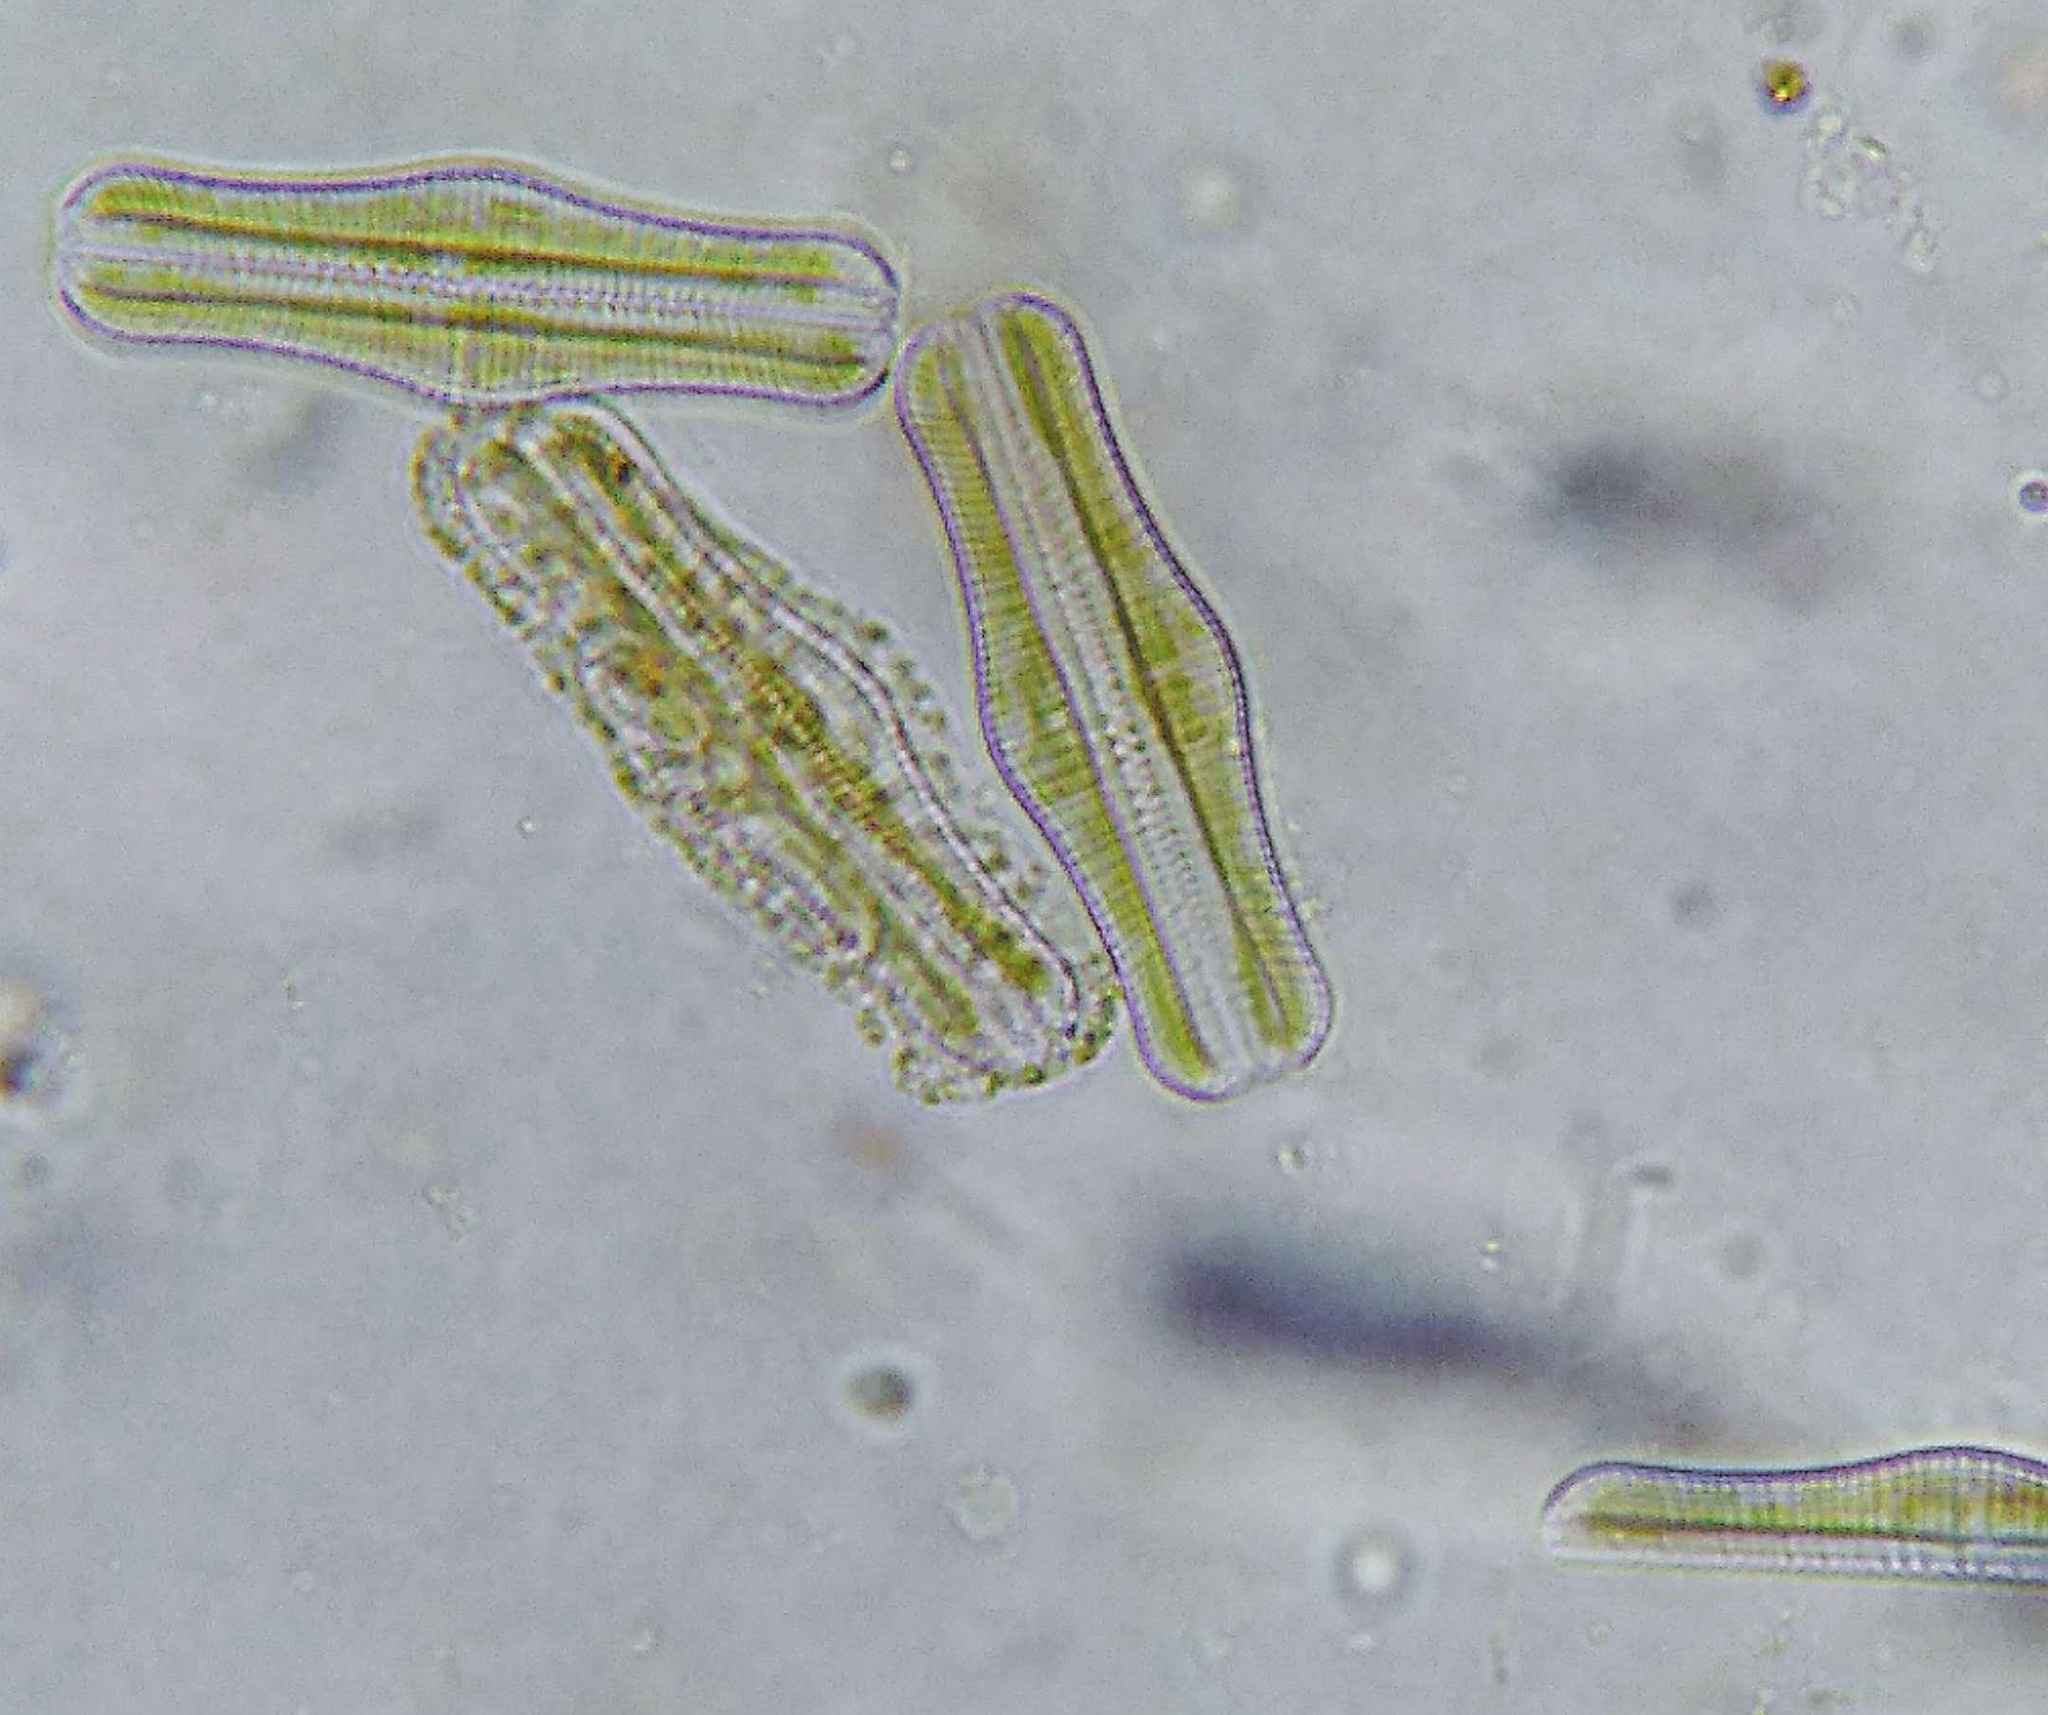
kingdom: Chromista
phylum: Ochrophyta
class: Bacillariophyceae
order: Rhopalodiales
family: Rhopalodiaceae
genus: Epithemia
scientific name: Epithemia gibba
